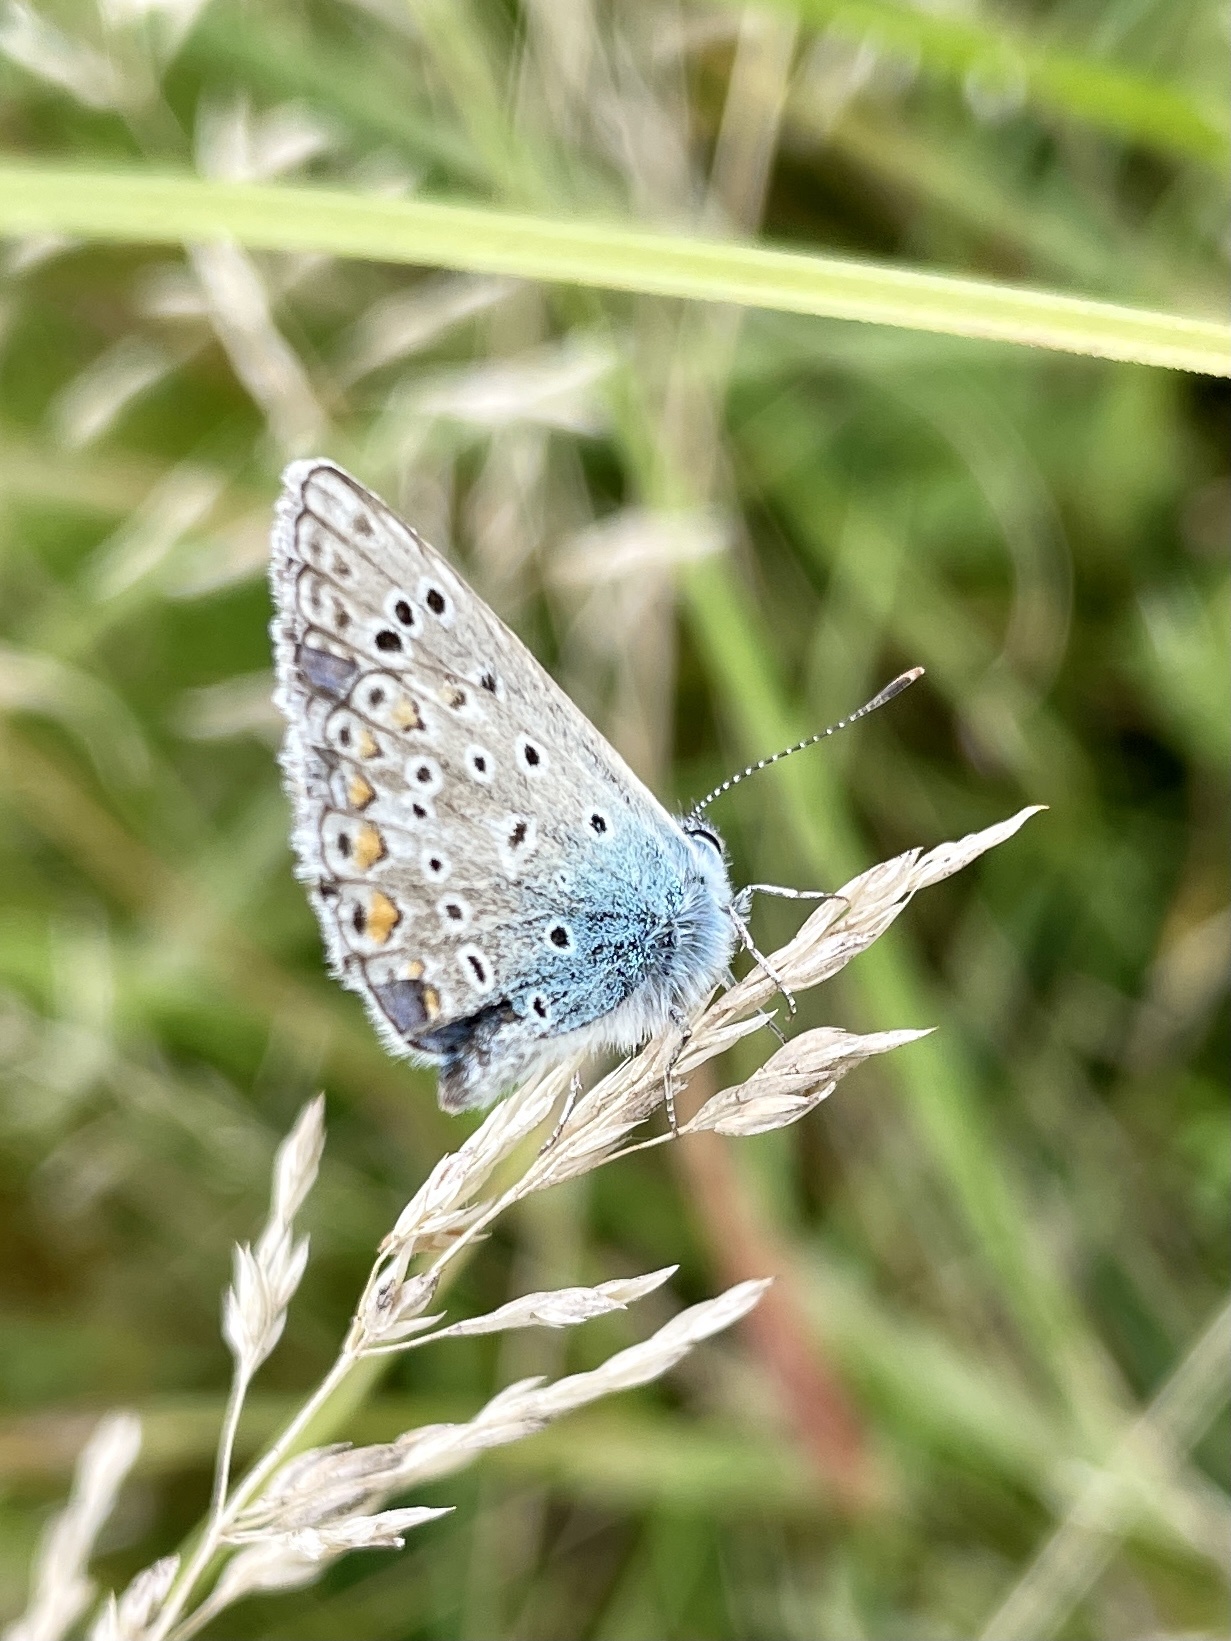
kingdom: Animalia
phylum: Arthropoda
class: Insecta
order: Lepidoptera
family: Lycaenidae
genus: Polyommatus
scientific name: Polyommatus icarus
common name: Common blue
